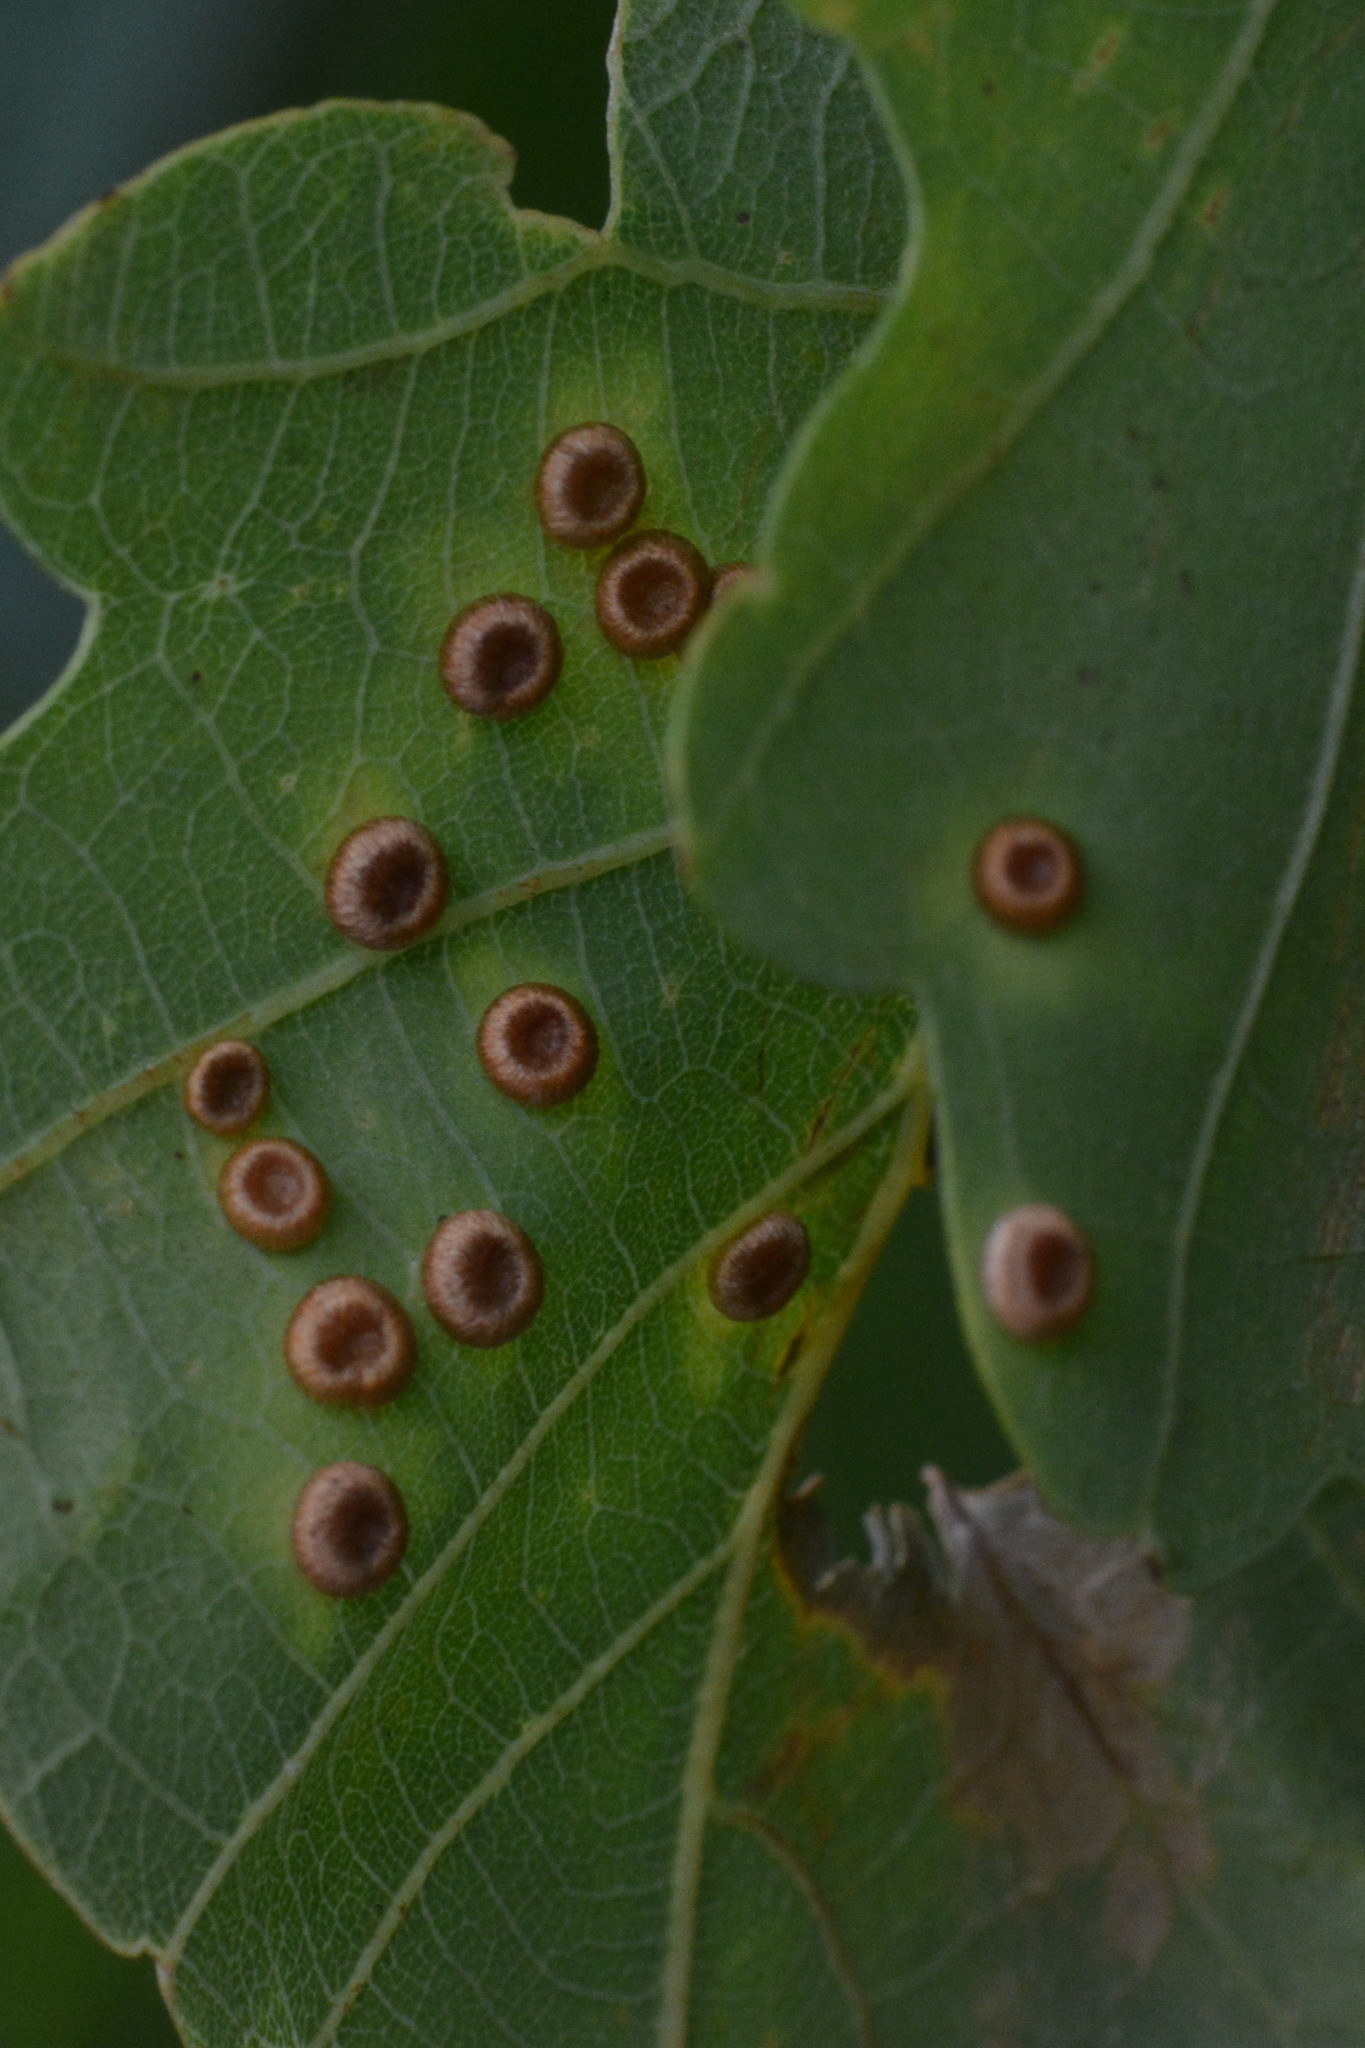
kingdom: Animalia
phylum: Arthropoda
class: Insecta
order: Hymenoptera
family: Cynipidae
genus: Neuroterus
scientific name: Neuroterus numismalis
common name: Silk-button spangle gall
